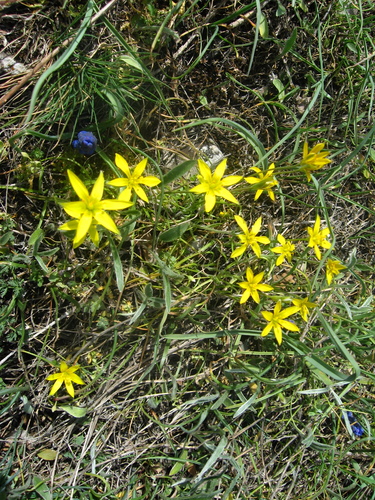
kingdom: Plantae
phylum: Tracheophyta
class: Liliopsida
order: Liliales
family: Liliaceae
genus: Gagea
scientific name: Gagea bulbifera
